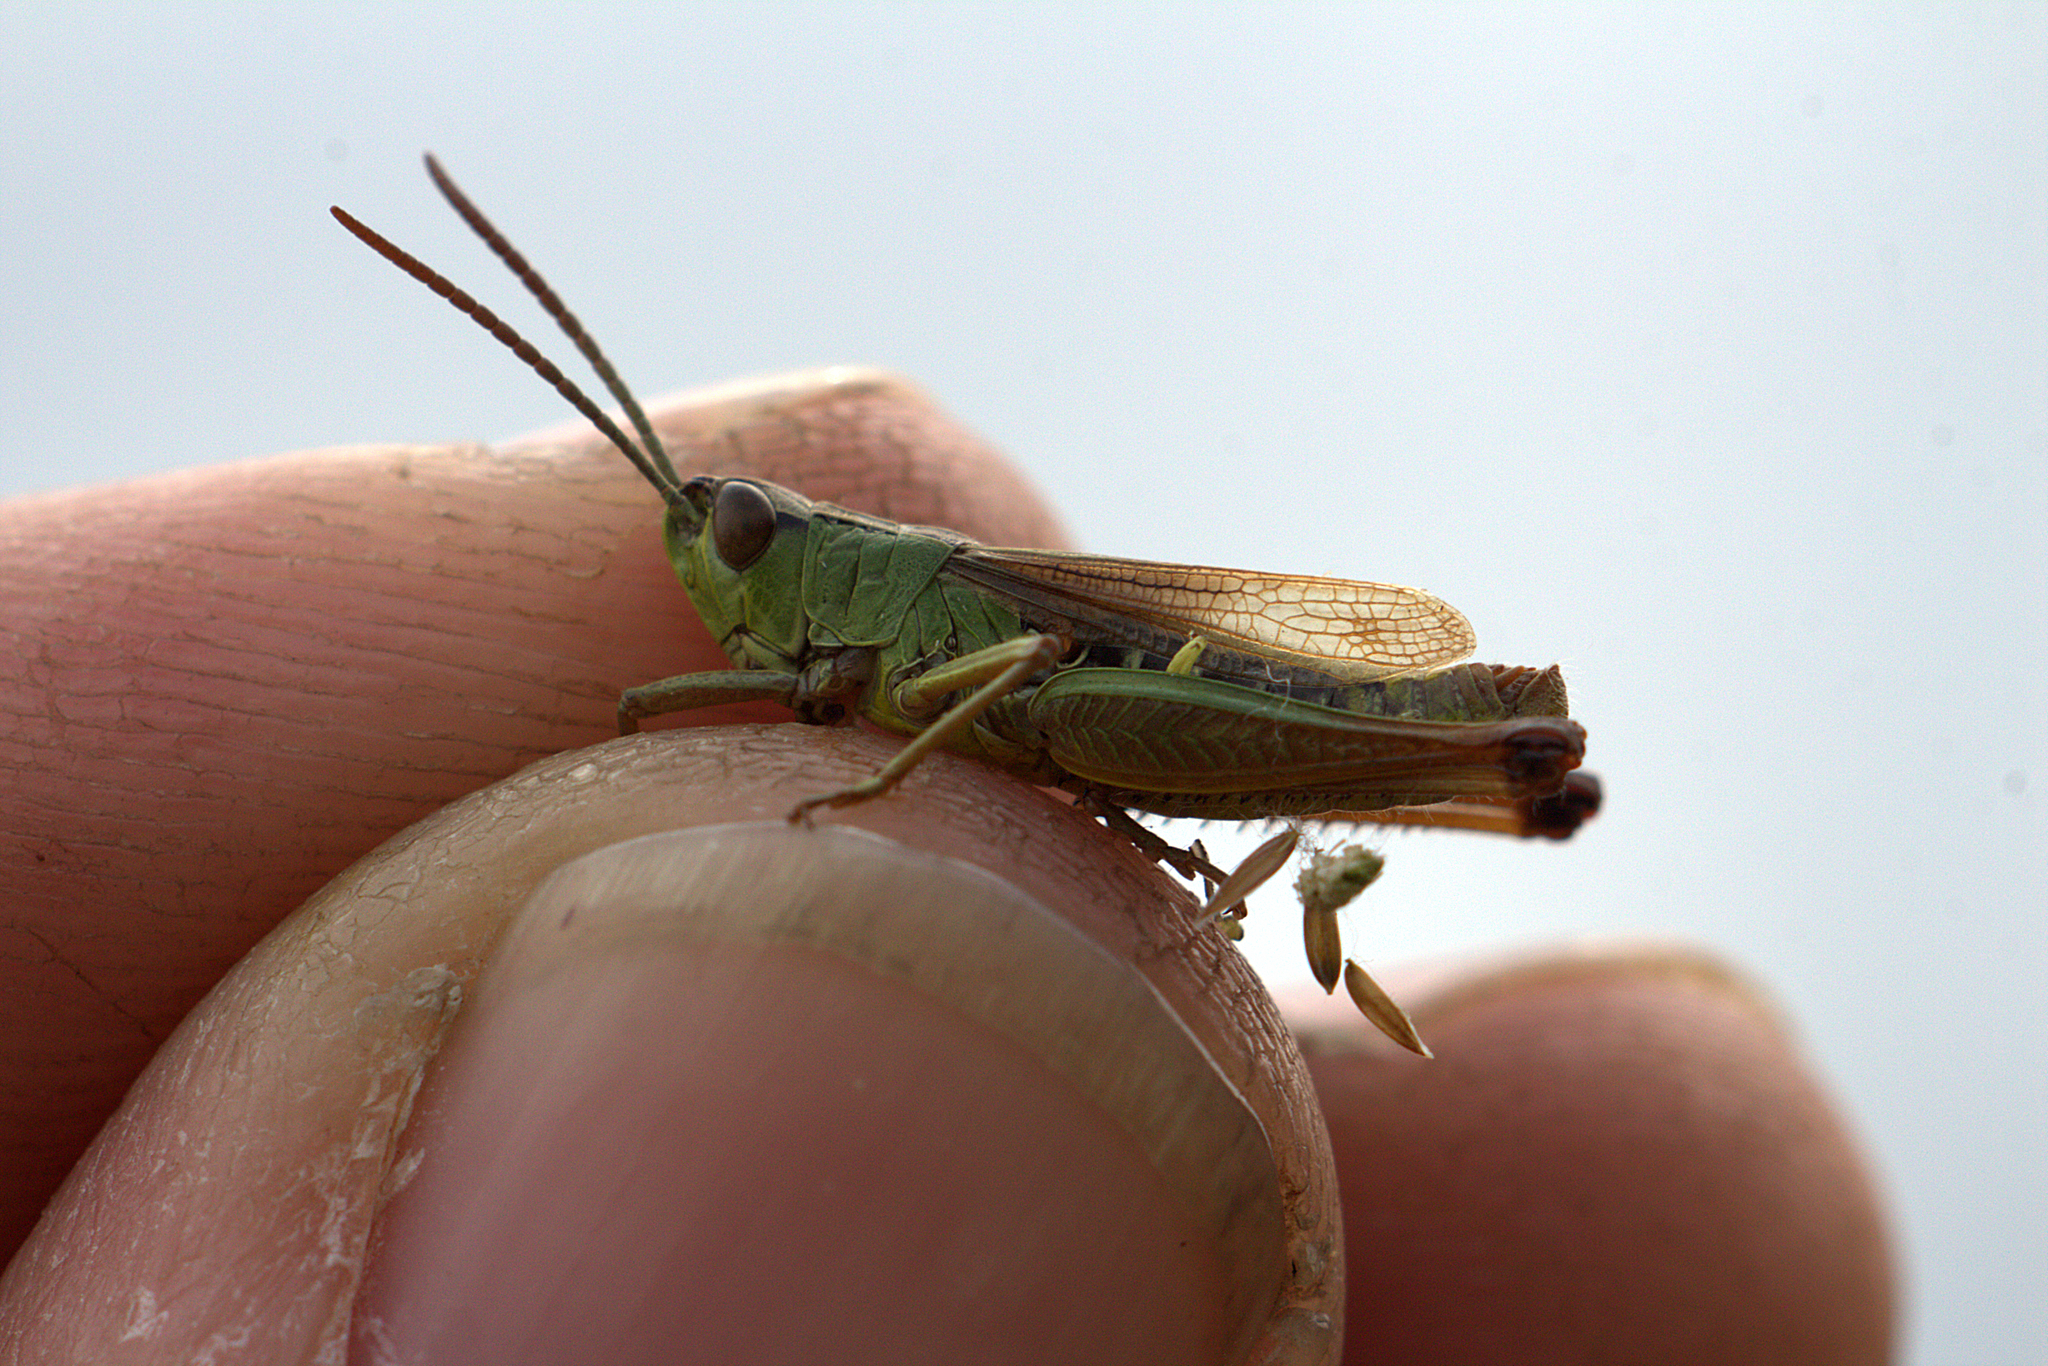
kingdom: Animalia
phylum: Arthropoda
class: Insecta
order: Orthoptera
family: Acrididae
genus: Pseudochorthippus
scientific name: Pseudochorthippus parallelus
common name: Meadow grasshopper
